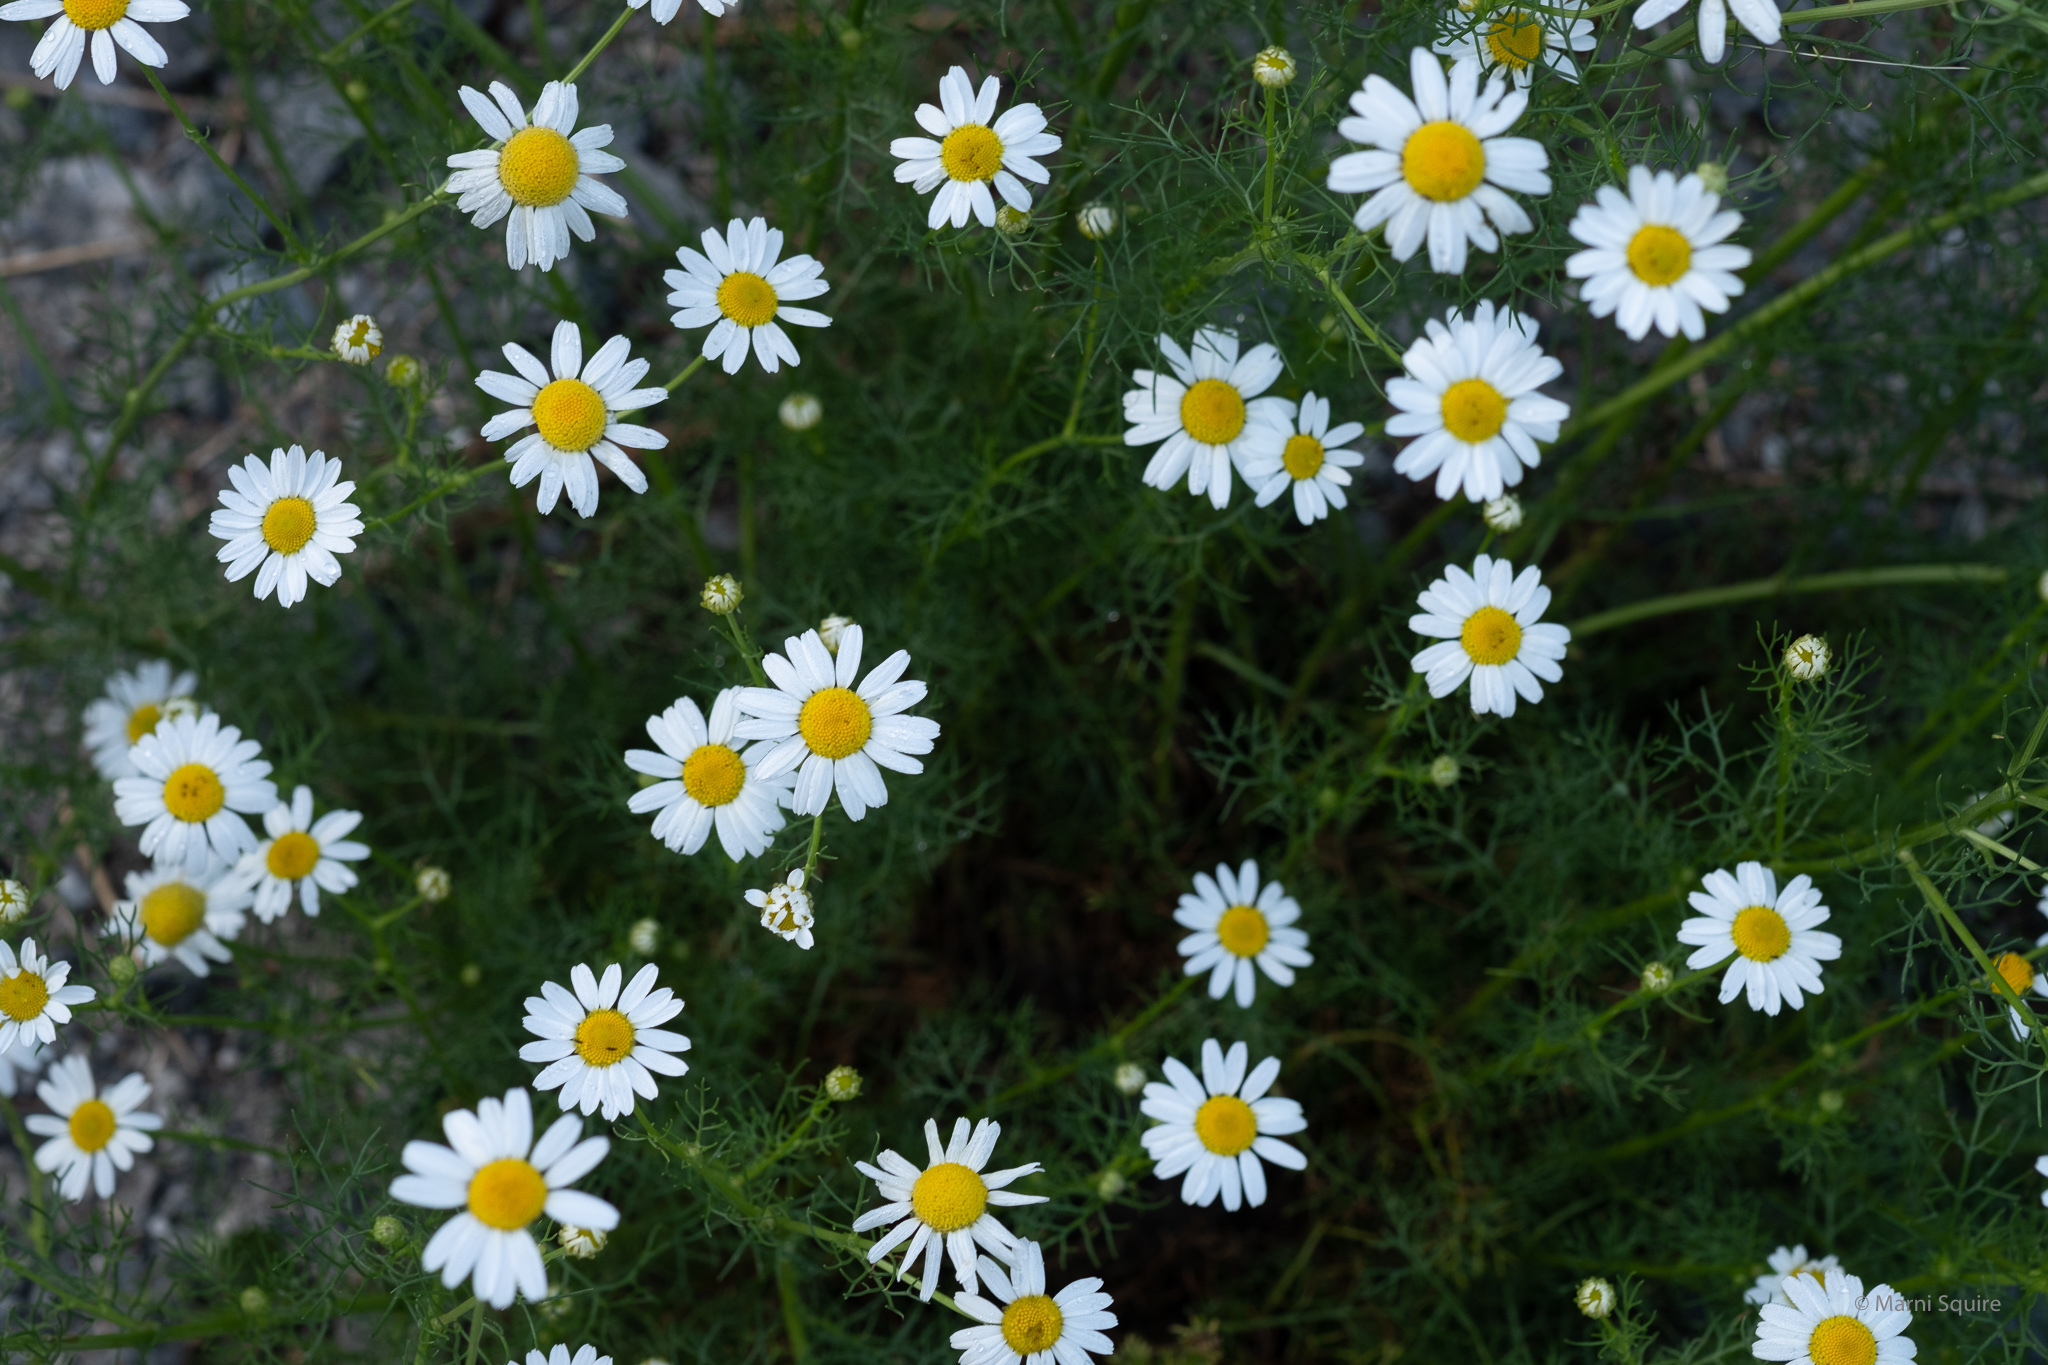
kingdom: Plantae
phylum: Tracheophyta
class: Magnoliopsida
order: Asterales
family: Asteraceae
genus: Tripleurospermum
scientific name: Tripleurospermum inodorum
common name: Scentless mayweed
